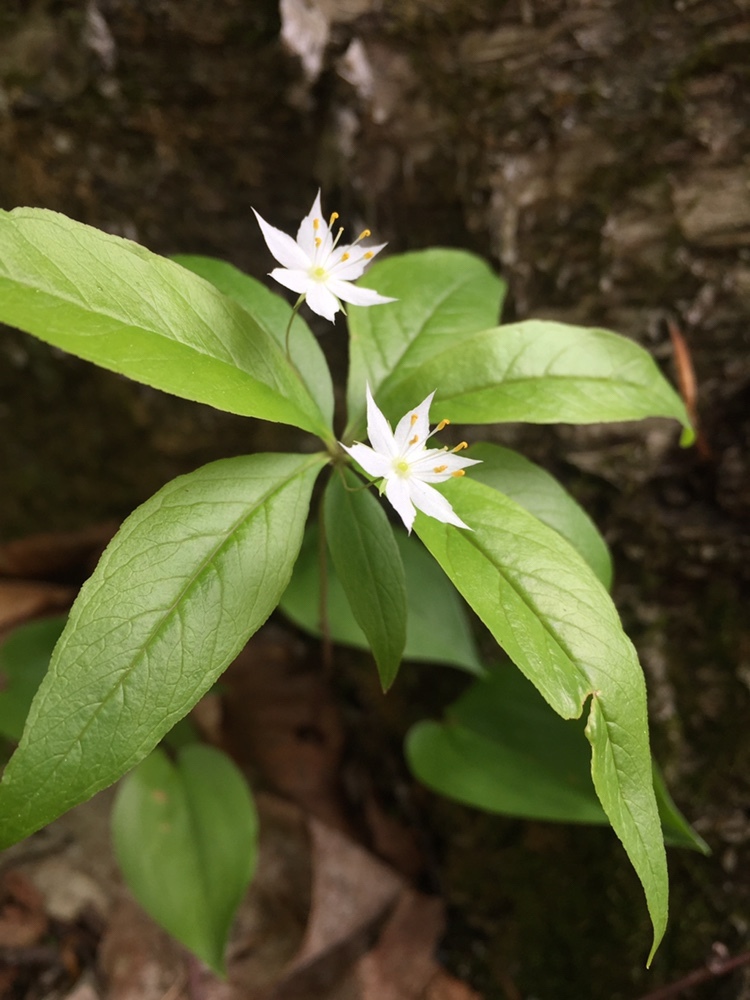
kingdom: Plantae
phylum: Tracheophyta
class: Magnoliopsida
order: Ericales
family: Primulaceae
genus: Lysimachia
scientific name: Lysimachia borealis
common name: American starflower
